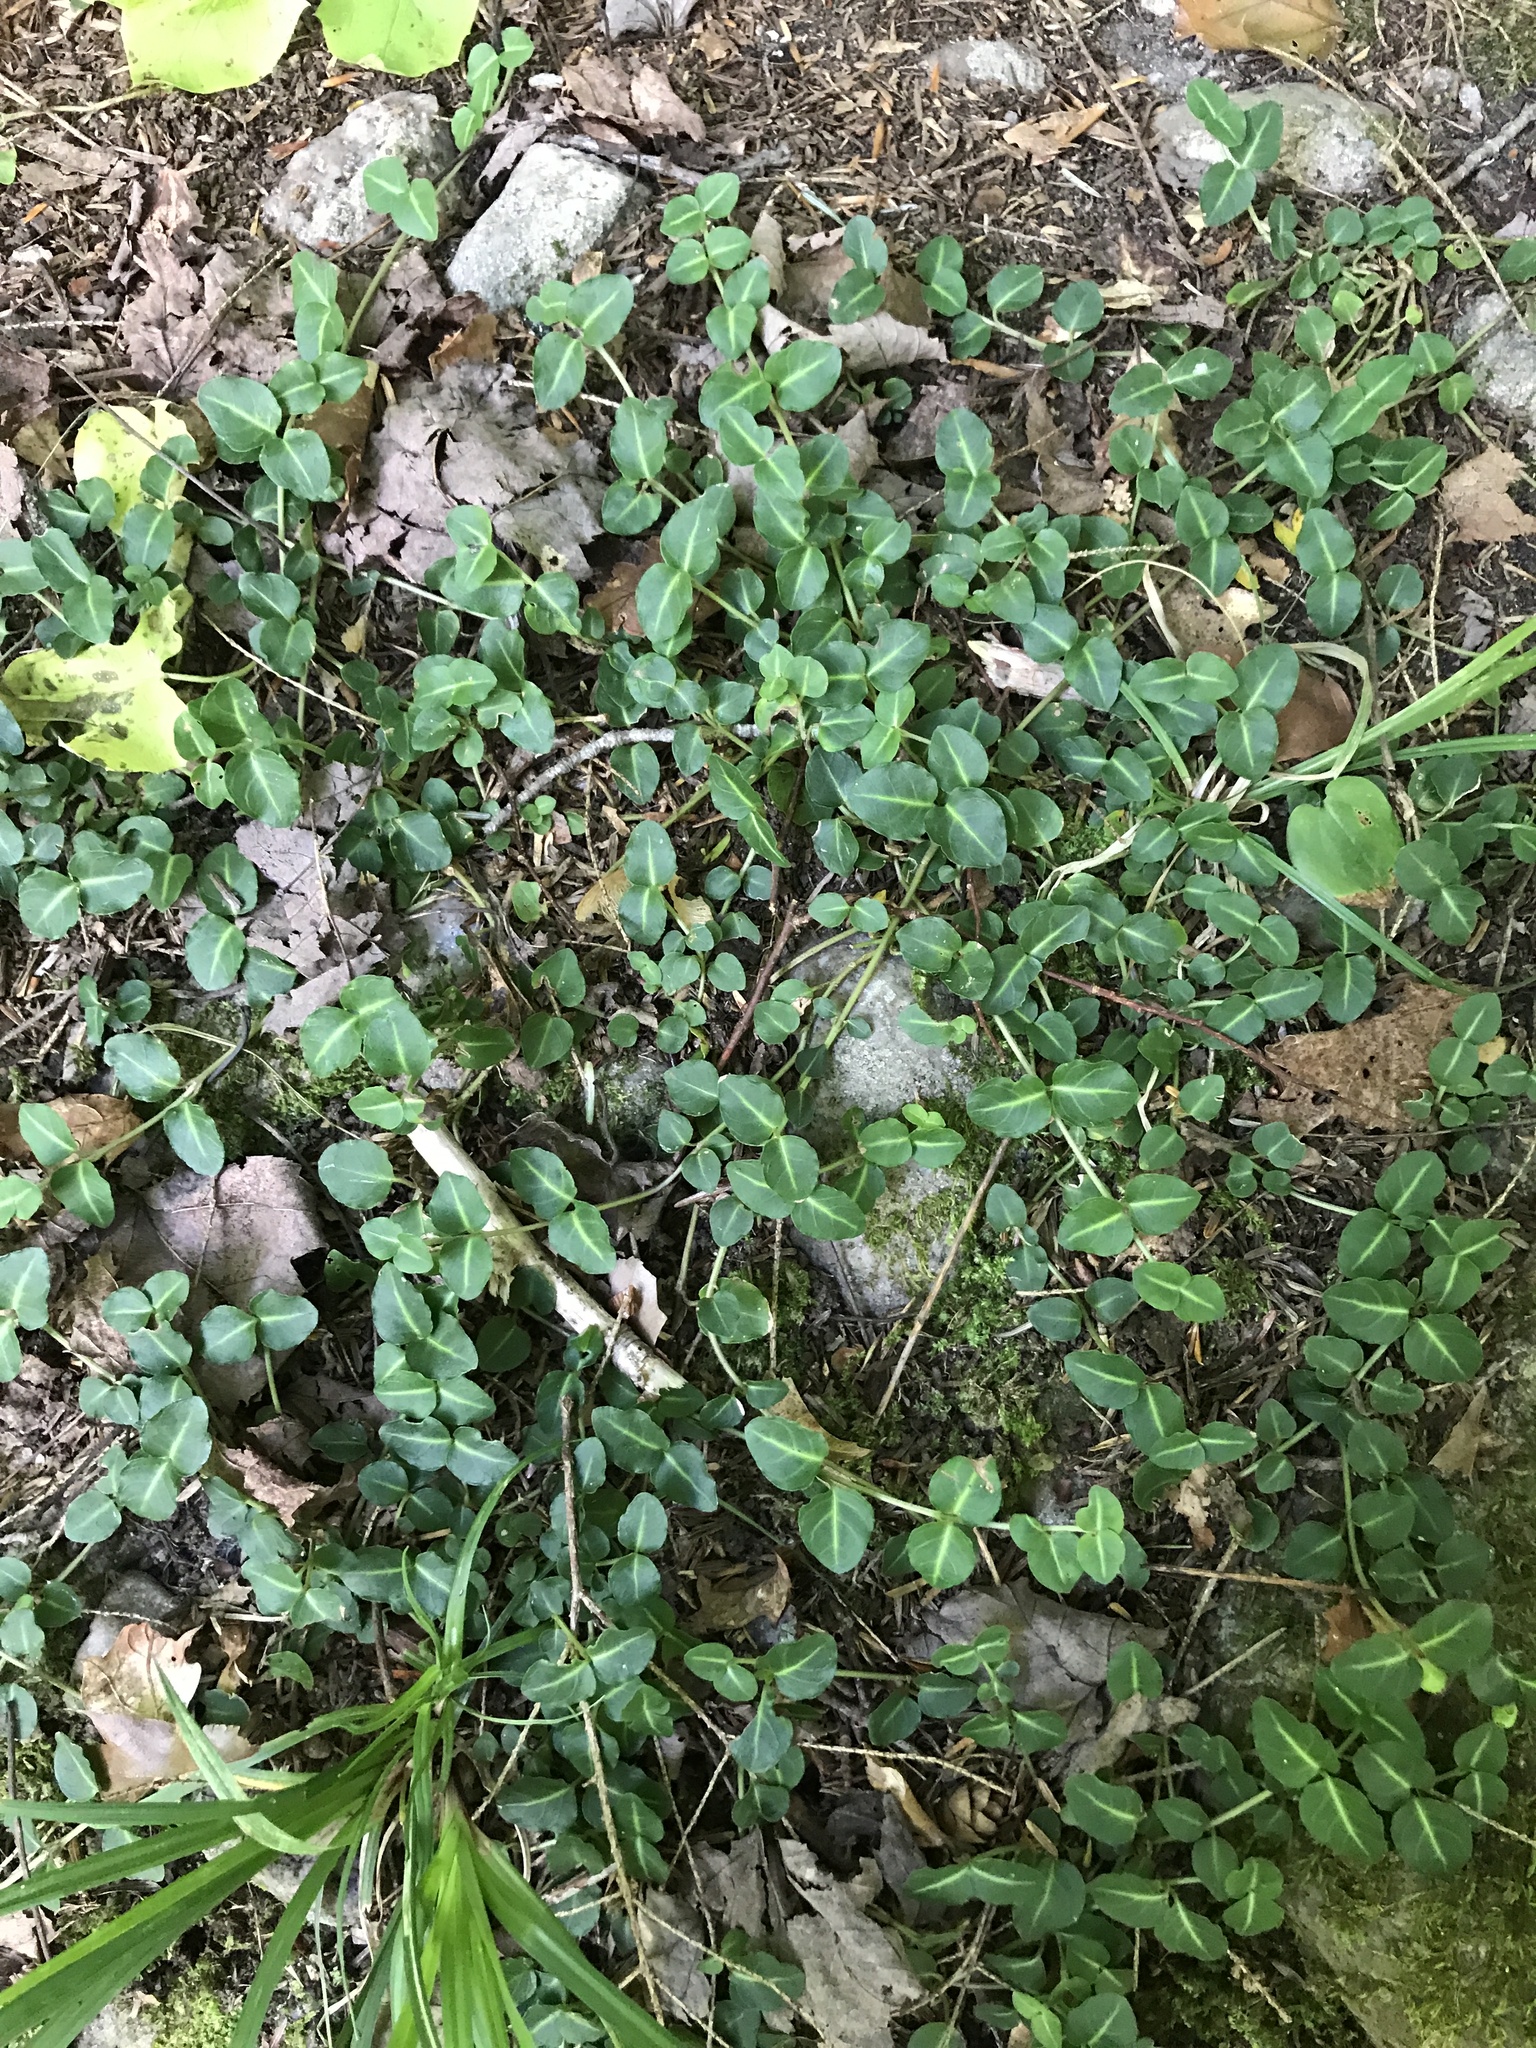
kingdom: Plantae
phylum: Tracheophyta
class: Magnoliopsida
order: Gentianales
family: Rubiaceae
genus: Mitchella
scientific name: Mitchella repens
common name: Partridge-berry
